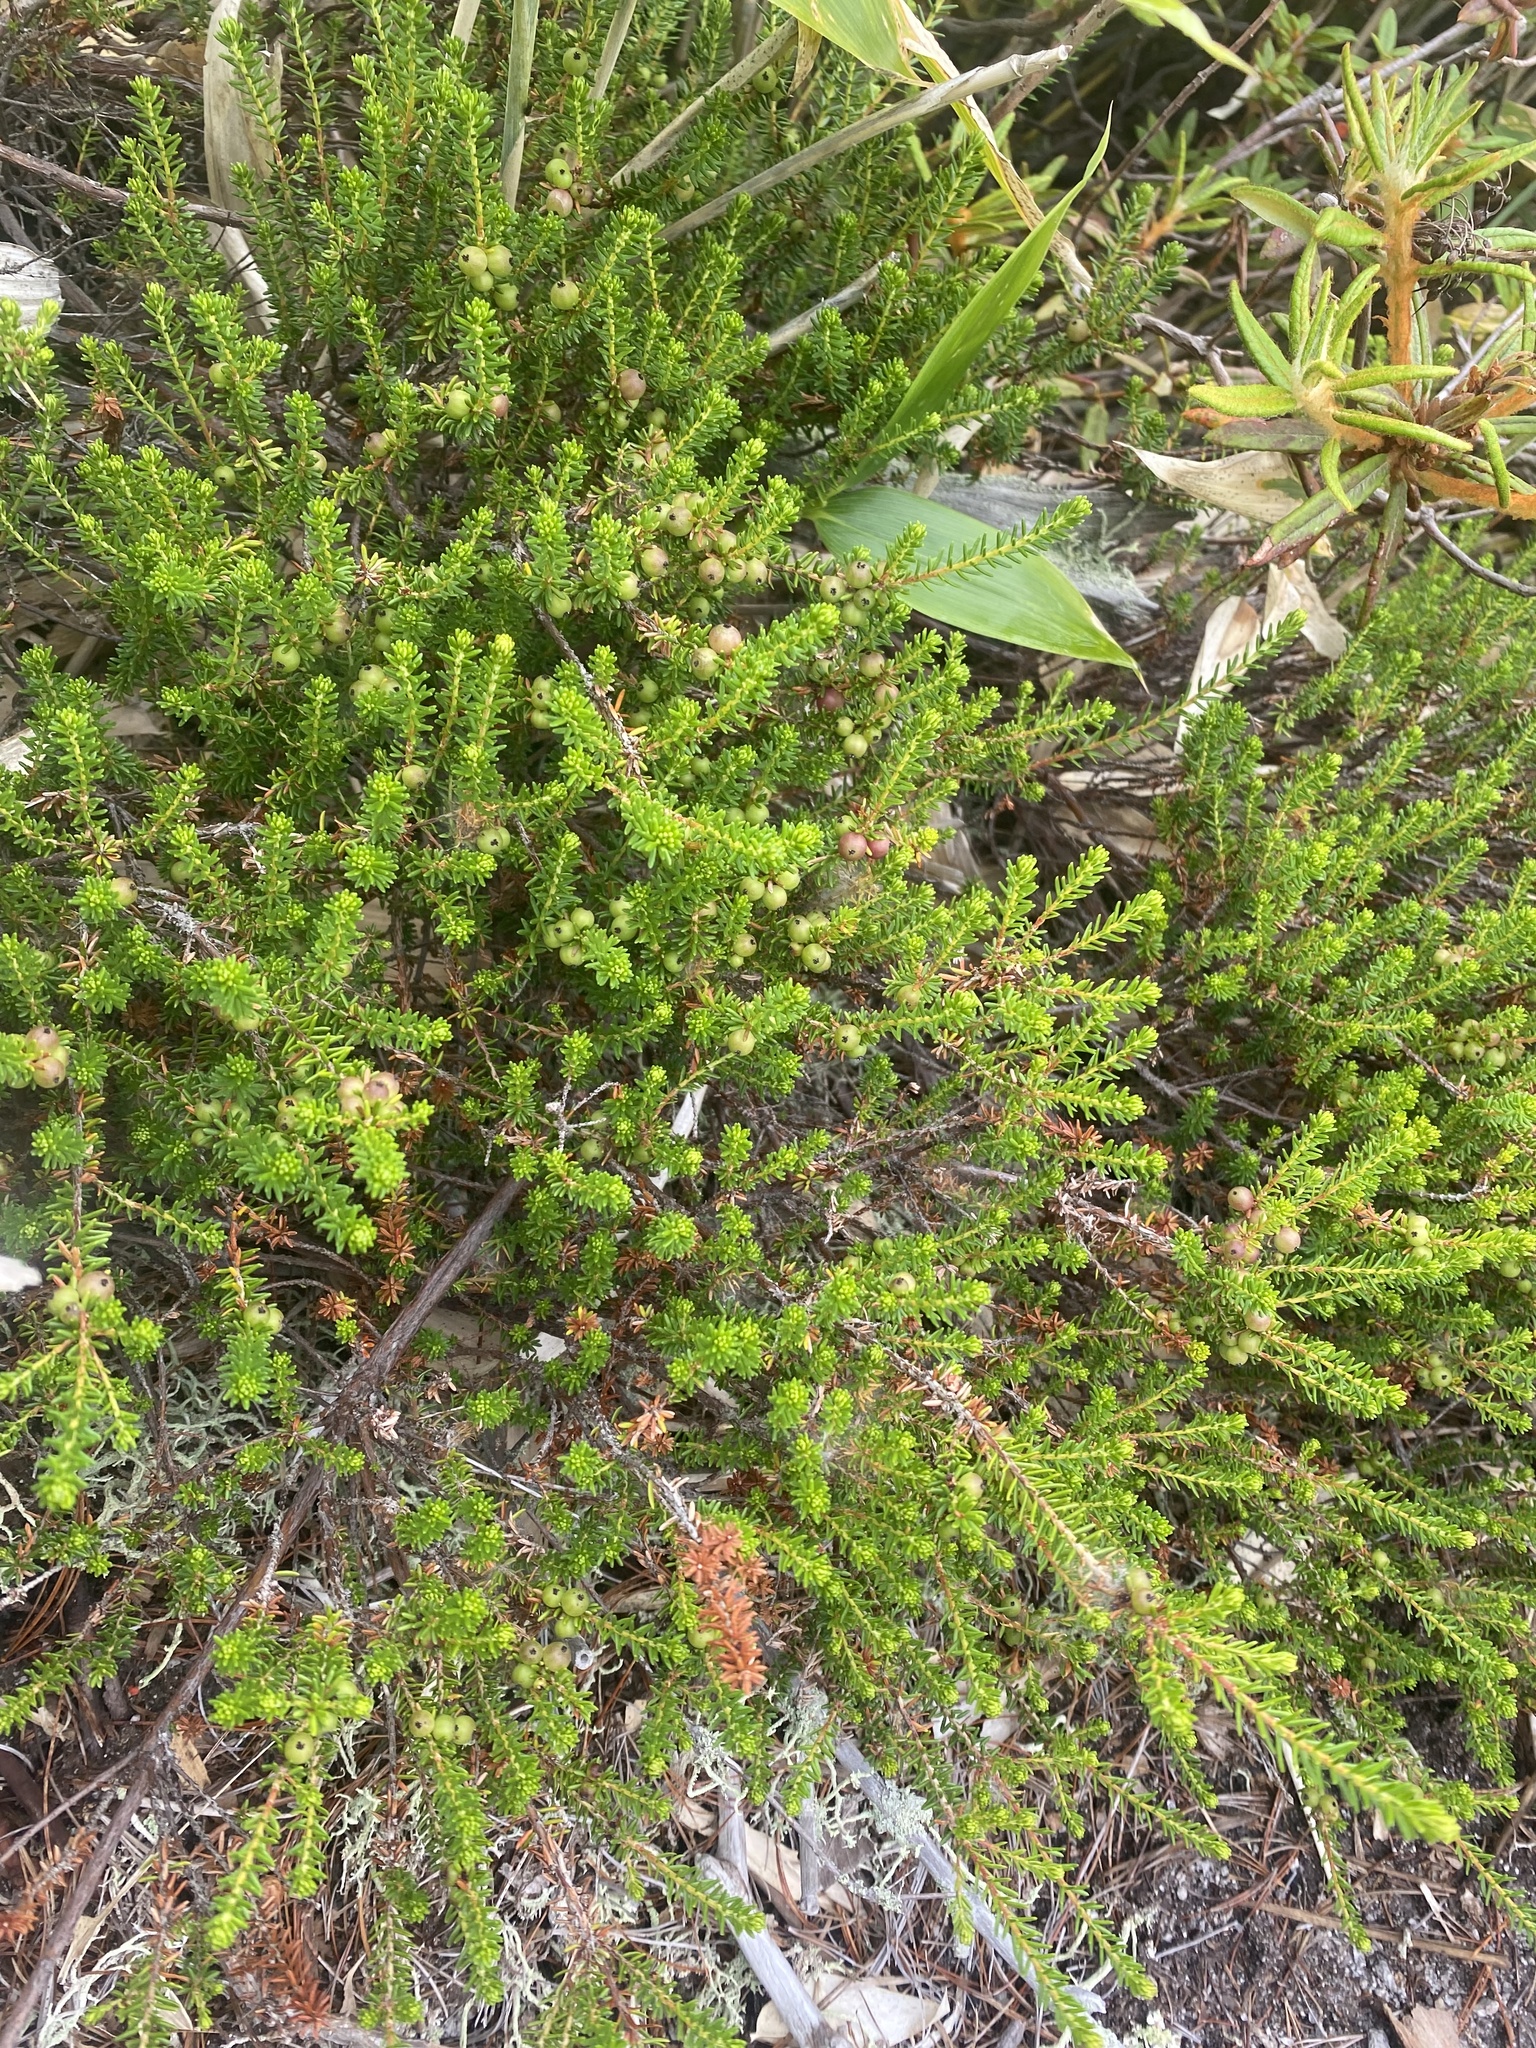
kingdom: Plantae
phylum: Tracheophyta
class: Magnoliopsida
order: Ericales
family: Ericaceae
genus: Empetrum
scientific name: Empetrum nigrum
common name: Black crowberry
